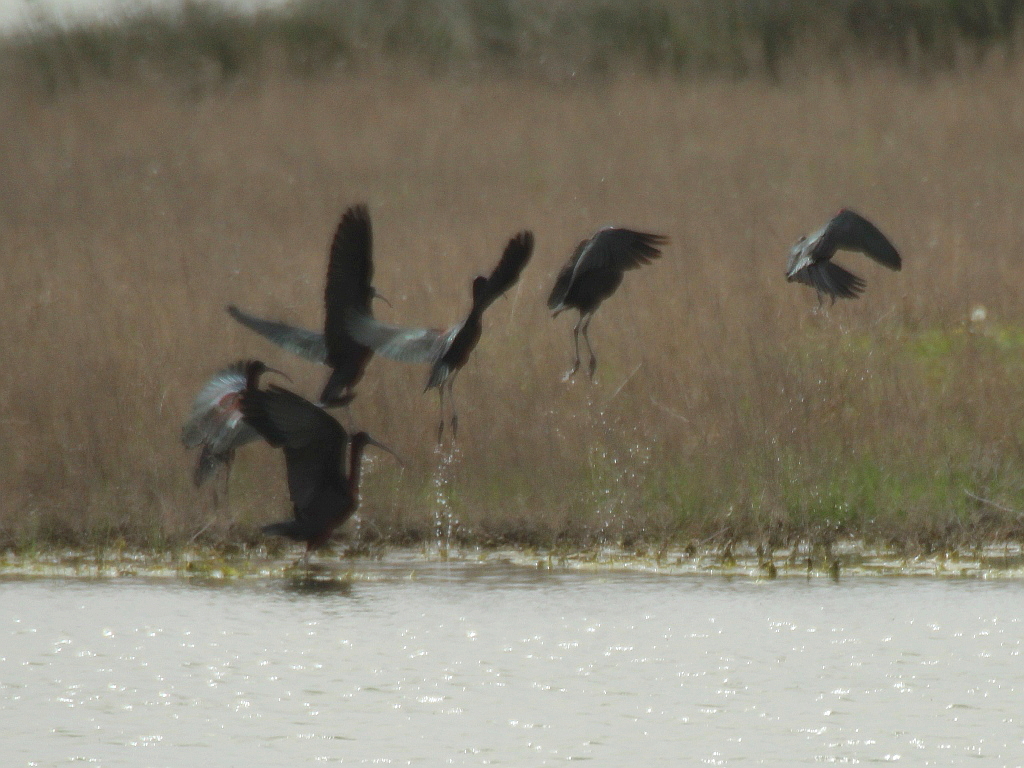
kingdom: Animalia
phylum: Chordata
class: Aves
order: Pelecaniformes
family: Threskiornithidae
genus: Plegadis
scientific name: Plegadis falcinellus
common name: Glossy ibis
